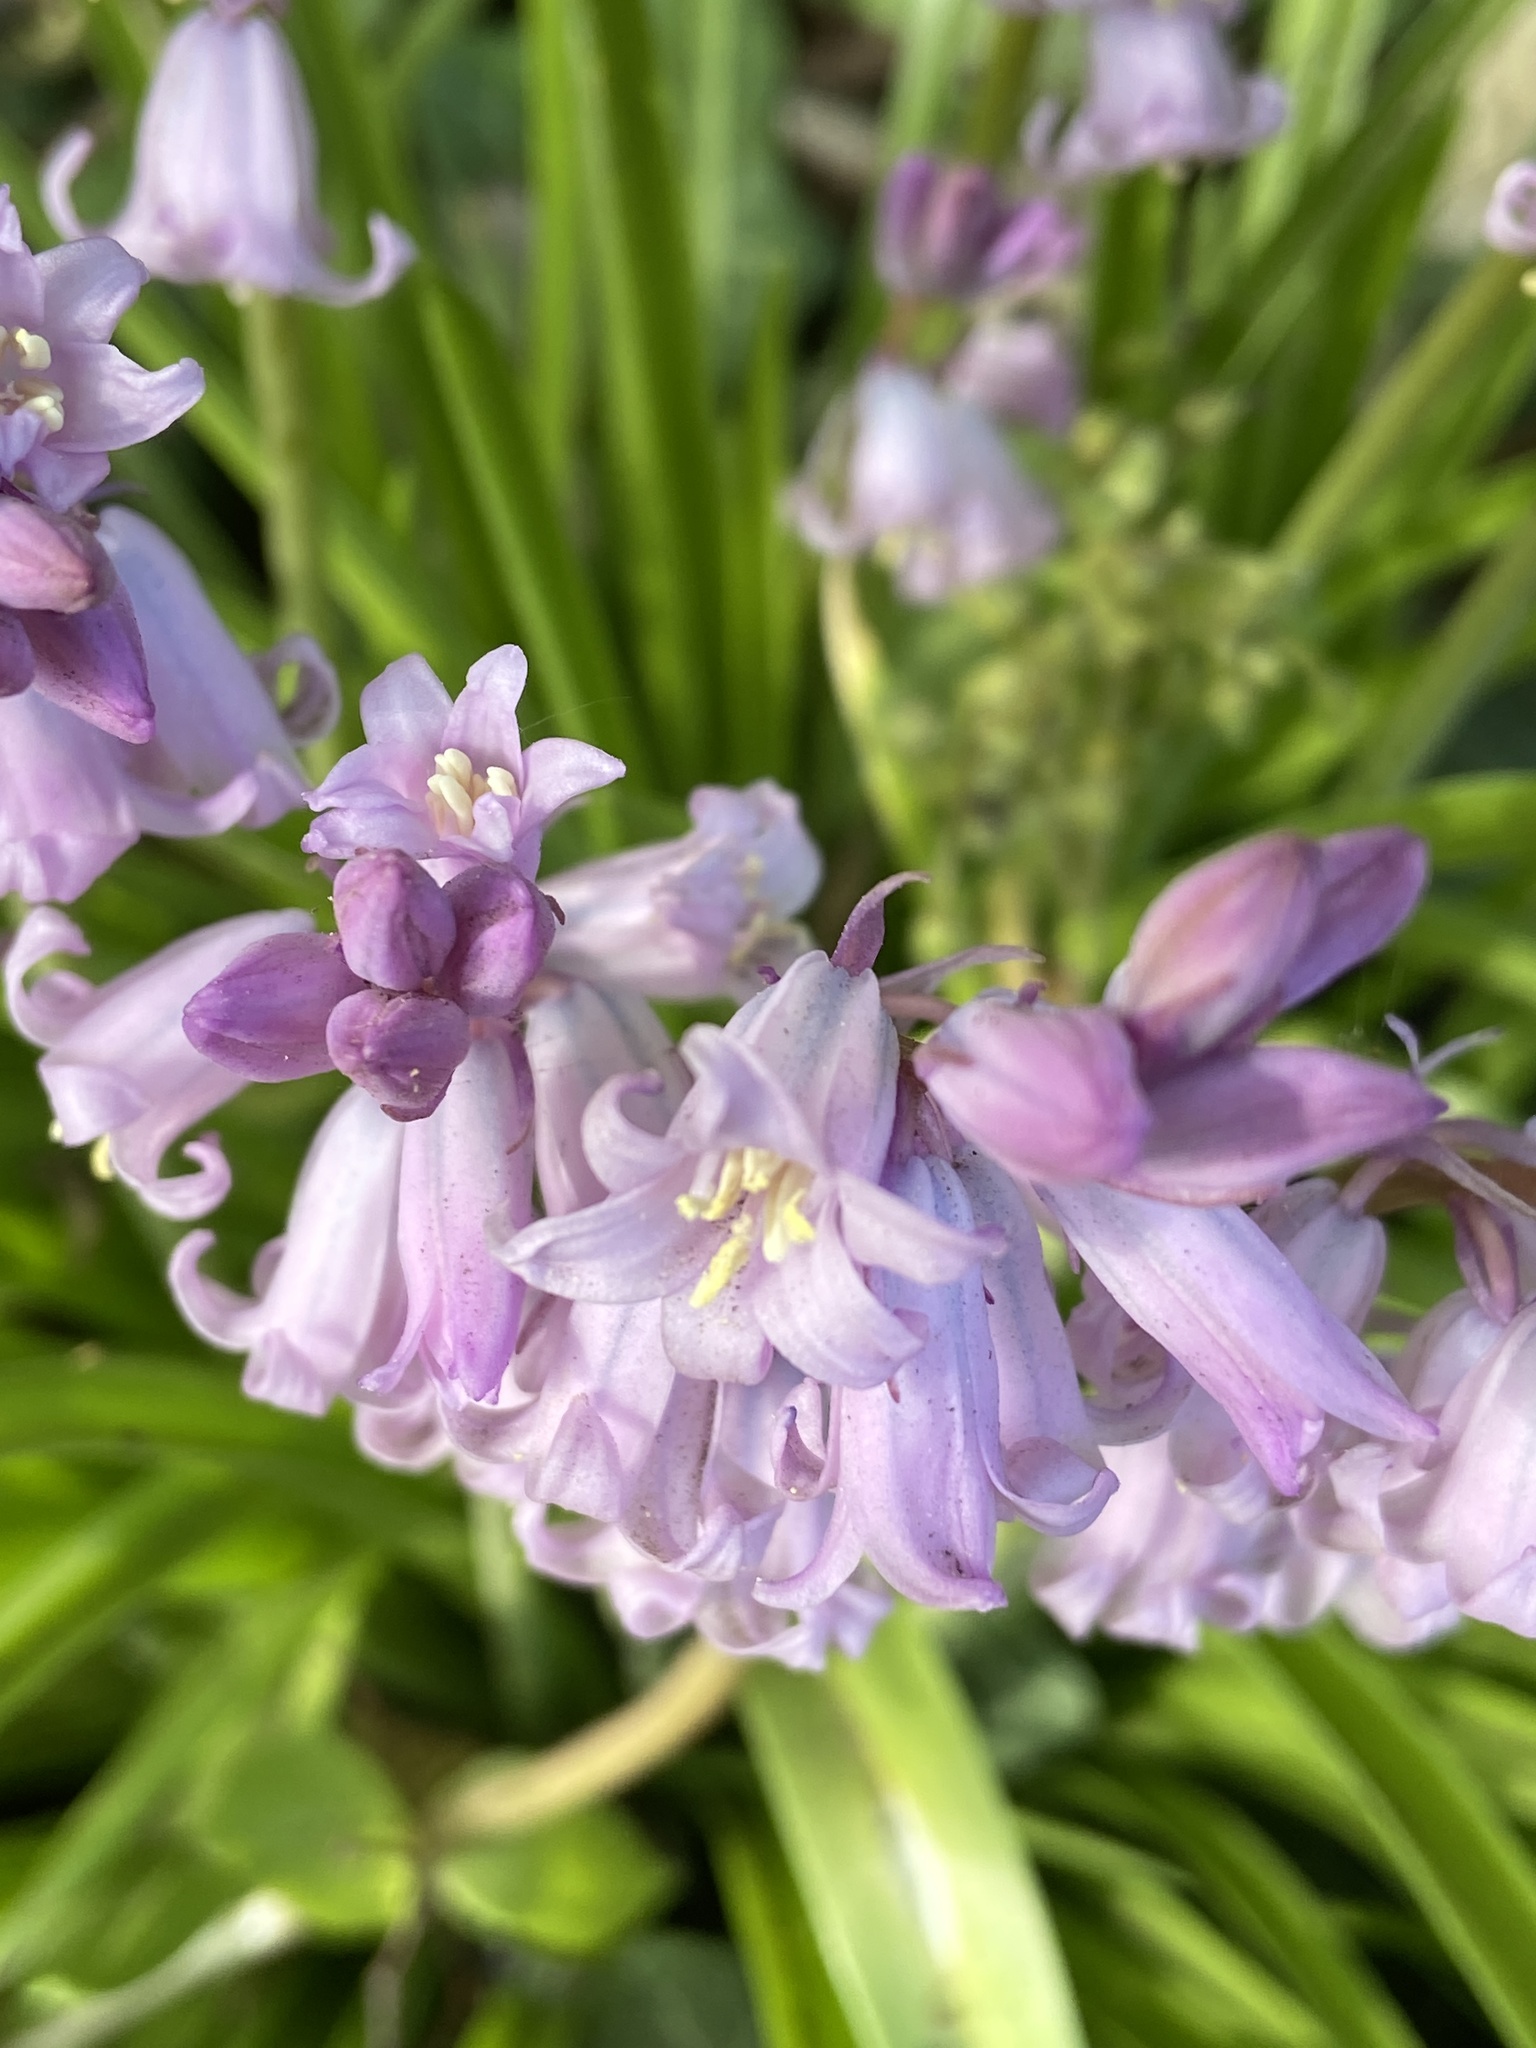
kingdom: Plantae
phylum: Tracheophyta
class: Liliopsida
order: Asparagales
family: Asparagaceae
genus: Hyacinthoides
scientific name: Hyacinthoides hispanica
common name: Spanish bluebell
